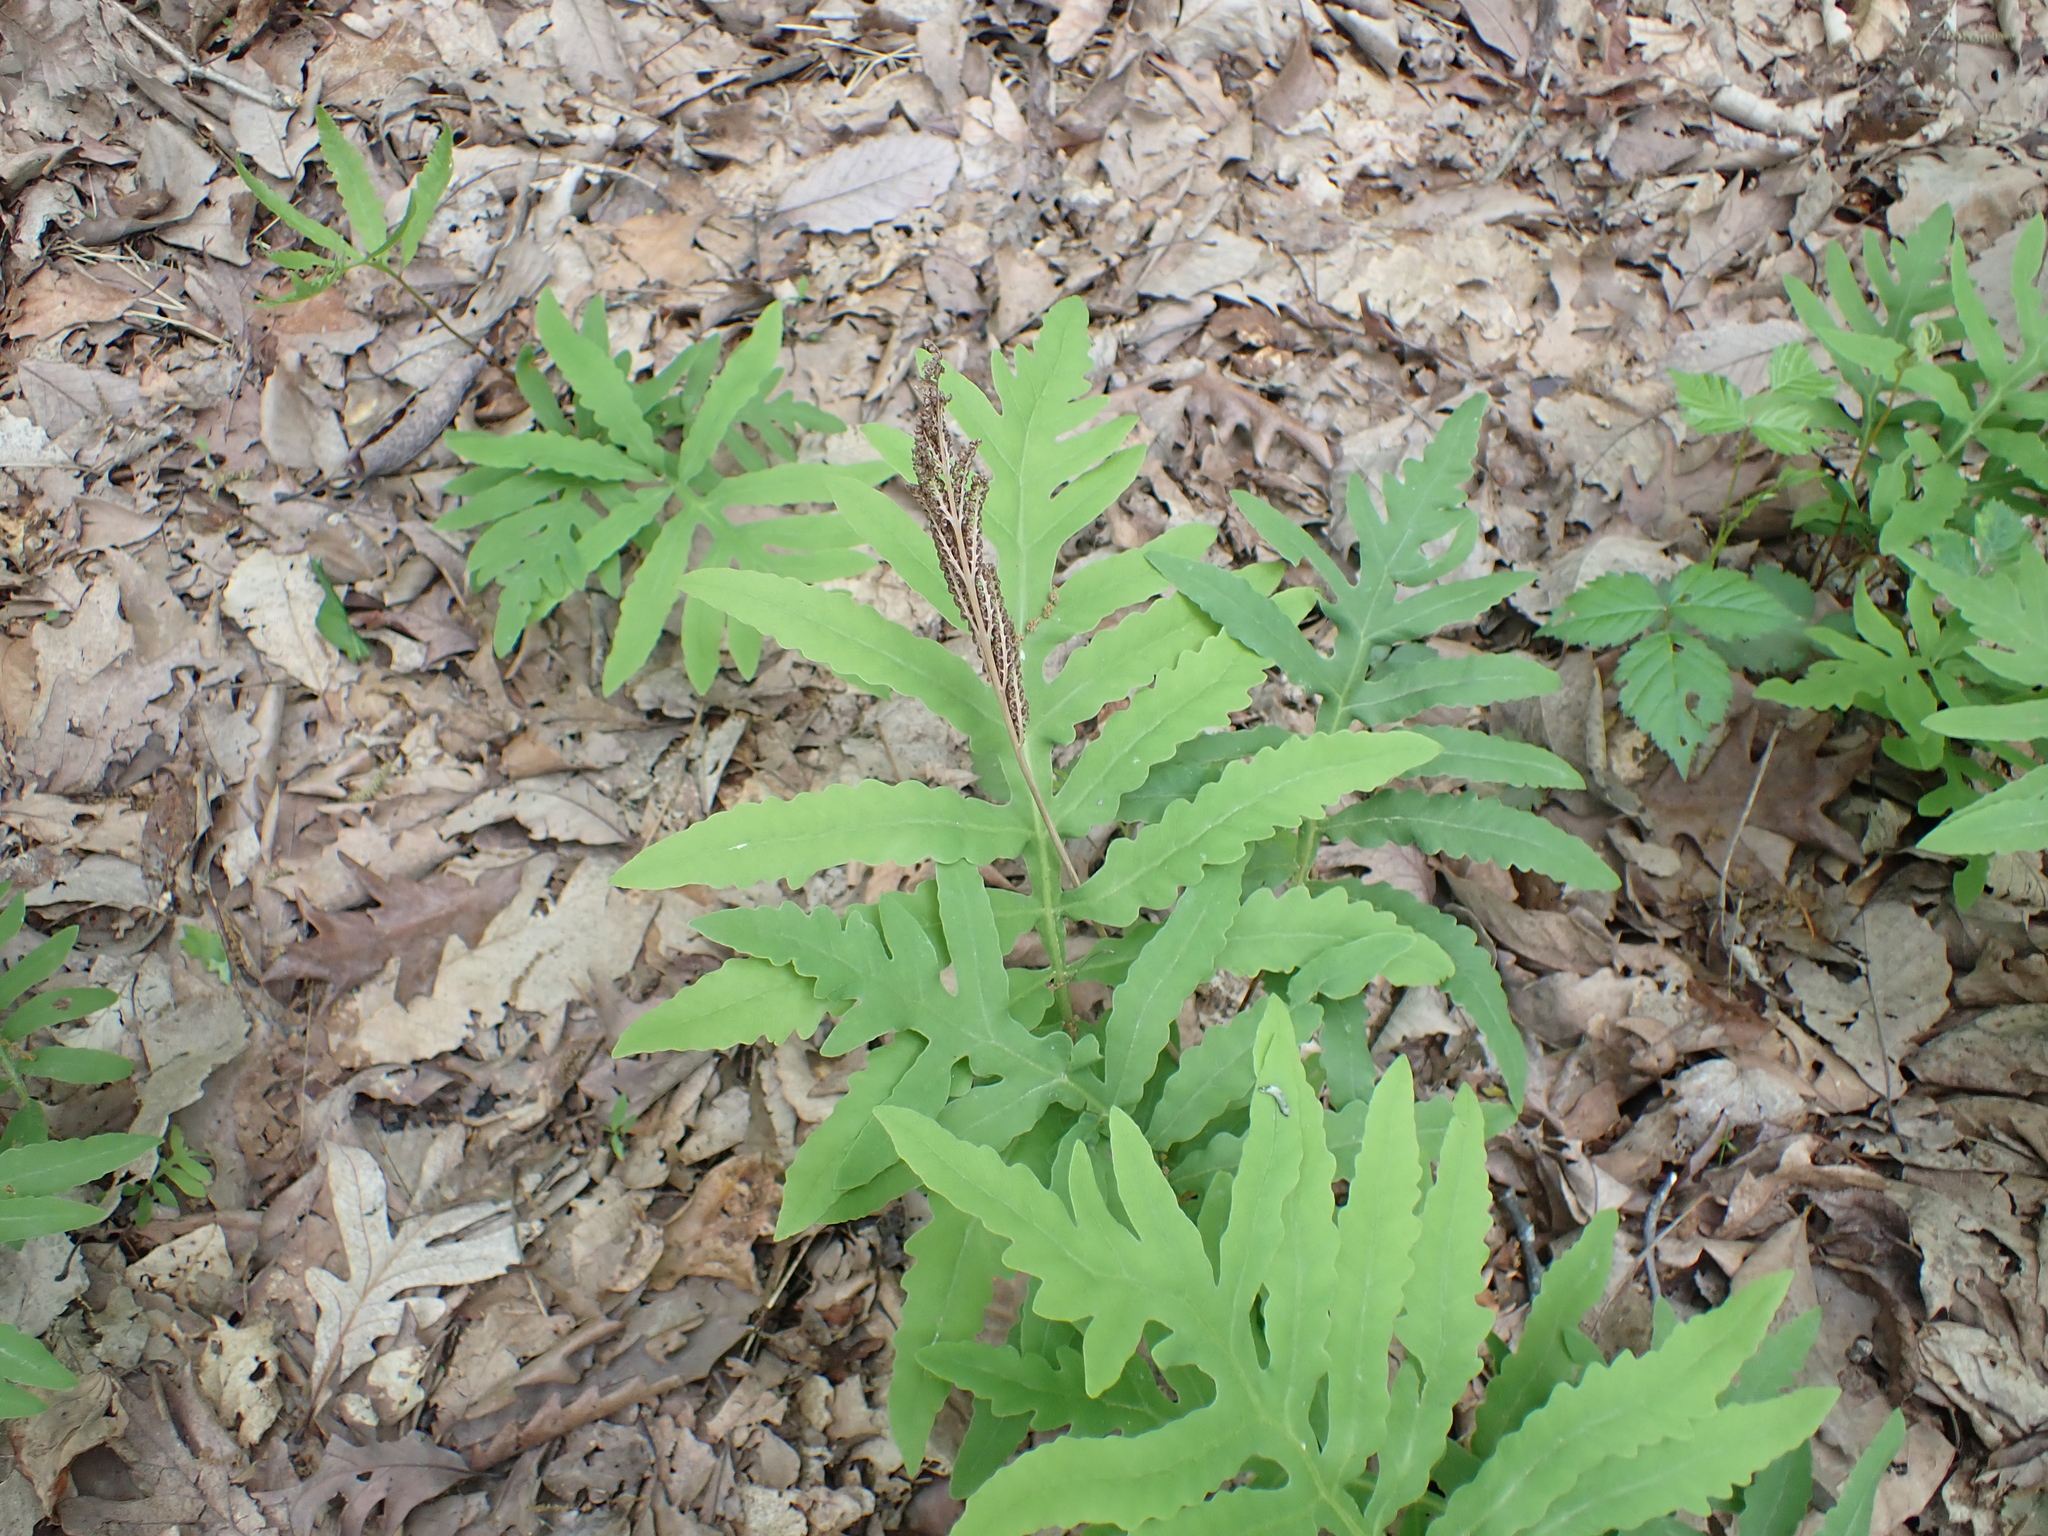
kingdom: Plantae
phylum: Tracheophyta
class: Polypodiopsida
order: Polypodiales
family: Onocleaceae
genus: Onoclea
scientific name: Onoclea sensibilis
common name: Sensitive fern
